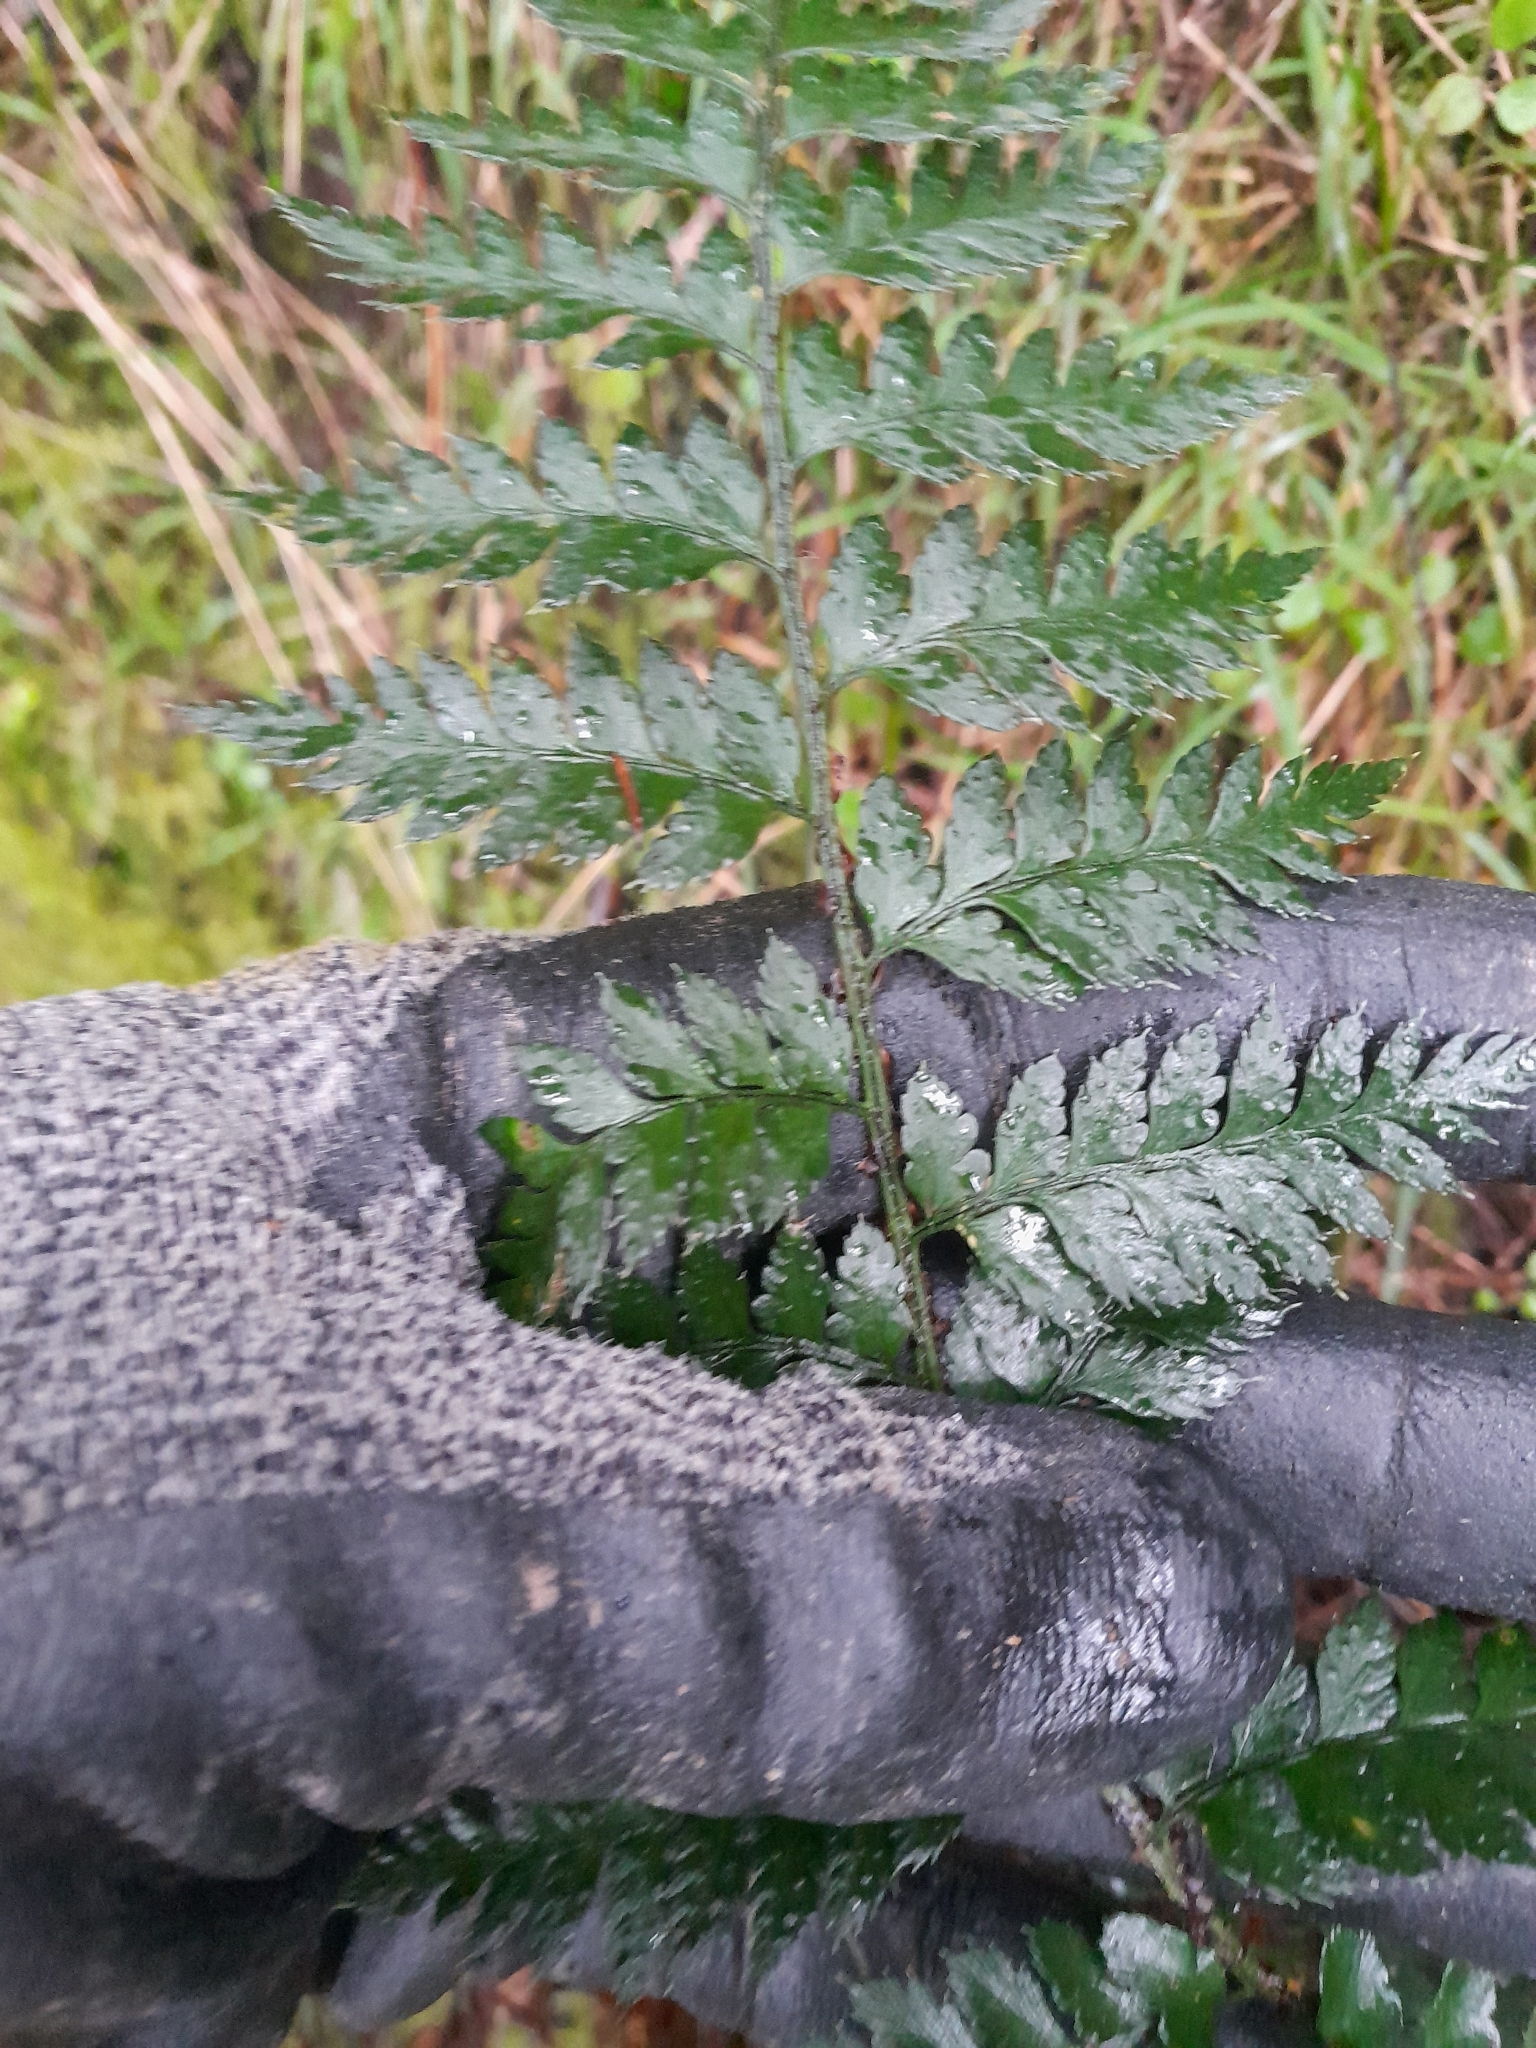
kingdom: Plantae
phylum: Tracheophyta
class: Polypodiopsida
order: Polypodiales
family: Dryopteridaceae
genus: Polystichum
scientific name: Polystichum oculatum
